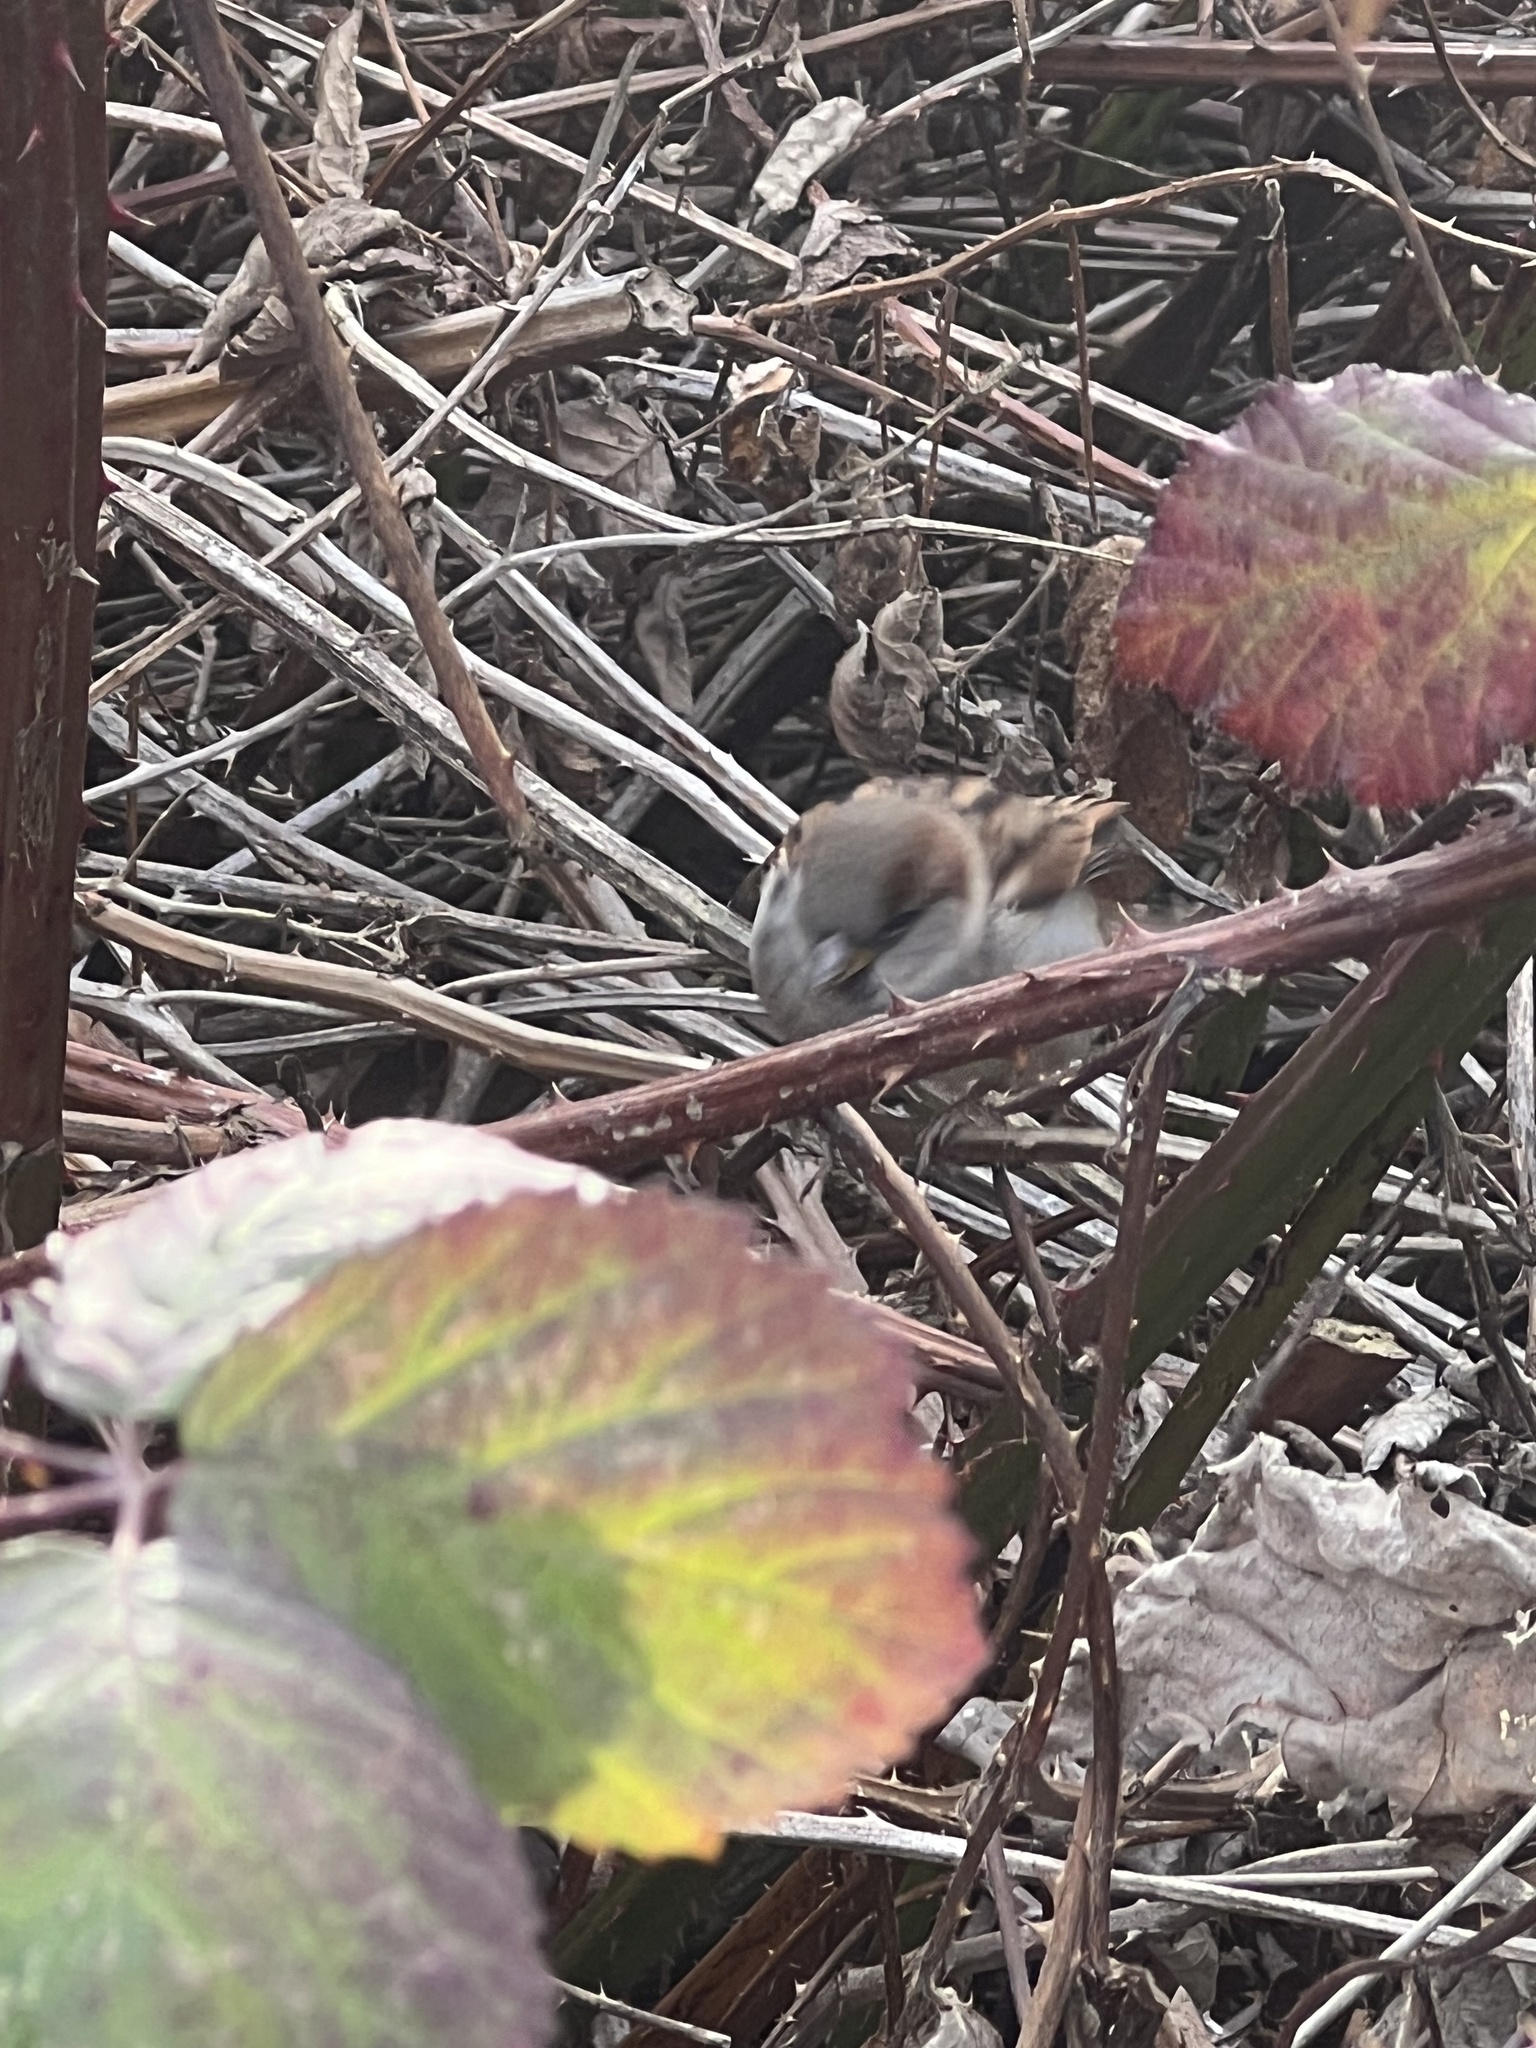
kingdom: Animalia
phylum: Chordata
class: Aves
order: Passeriformes
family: Passeridae
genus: Passer
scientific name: Passer domesticus
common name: House sparrow
